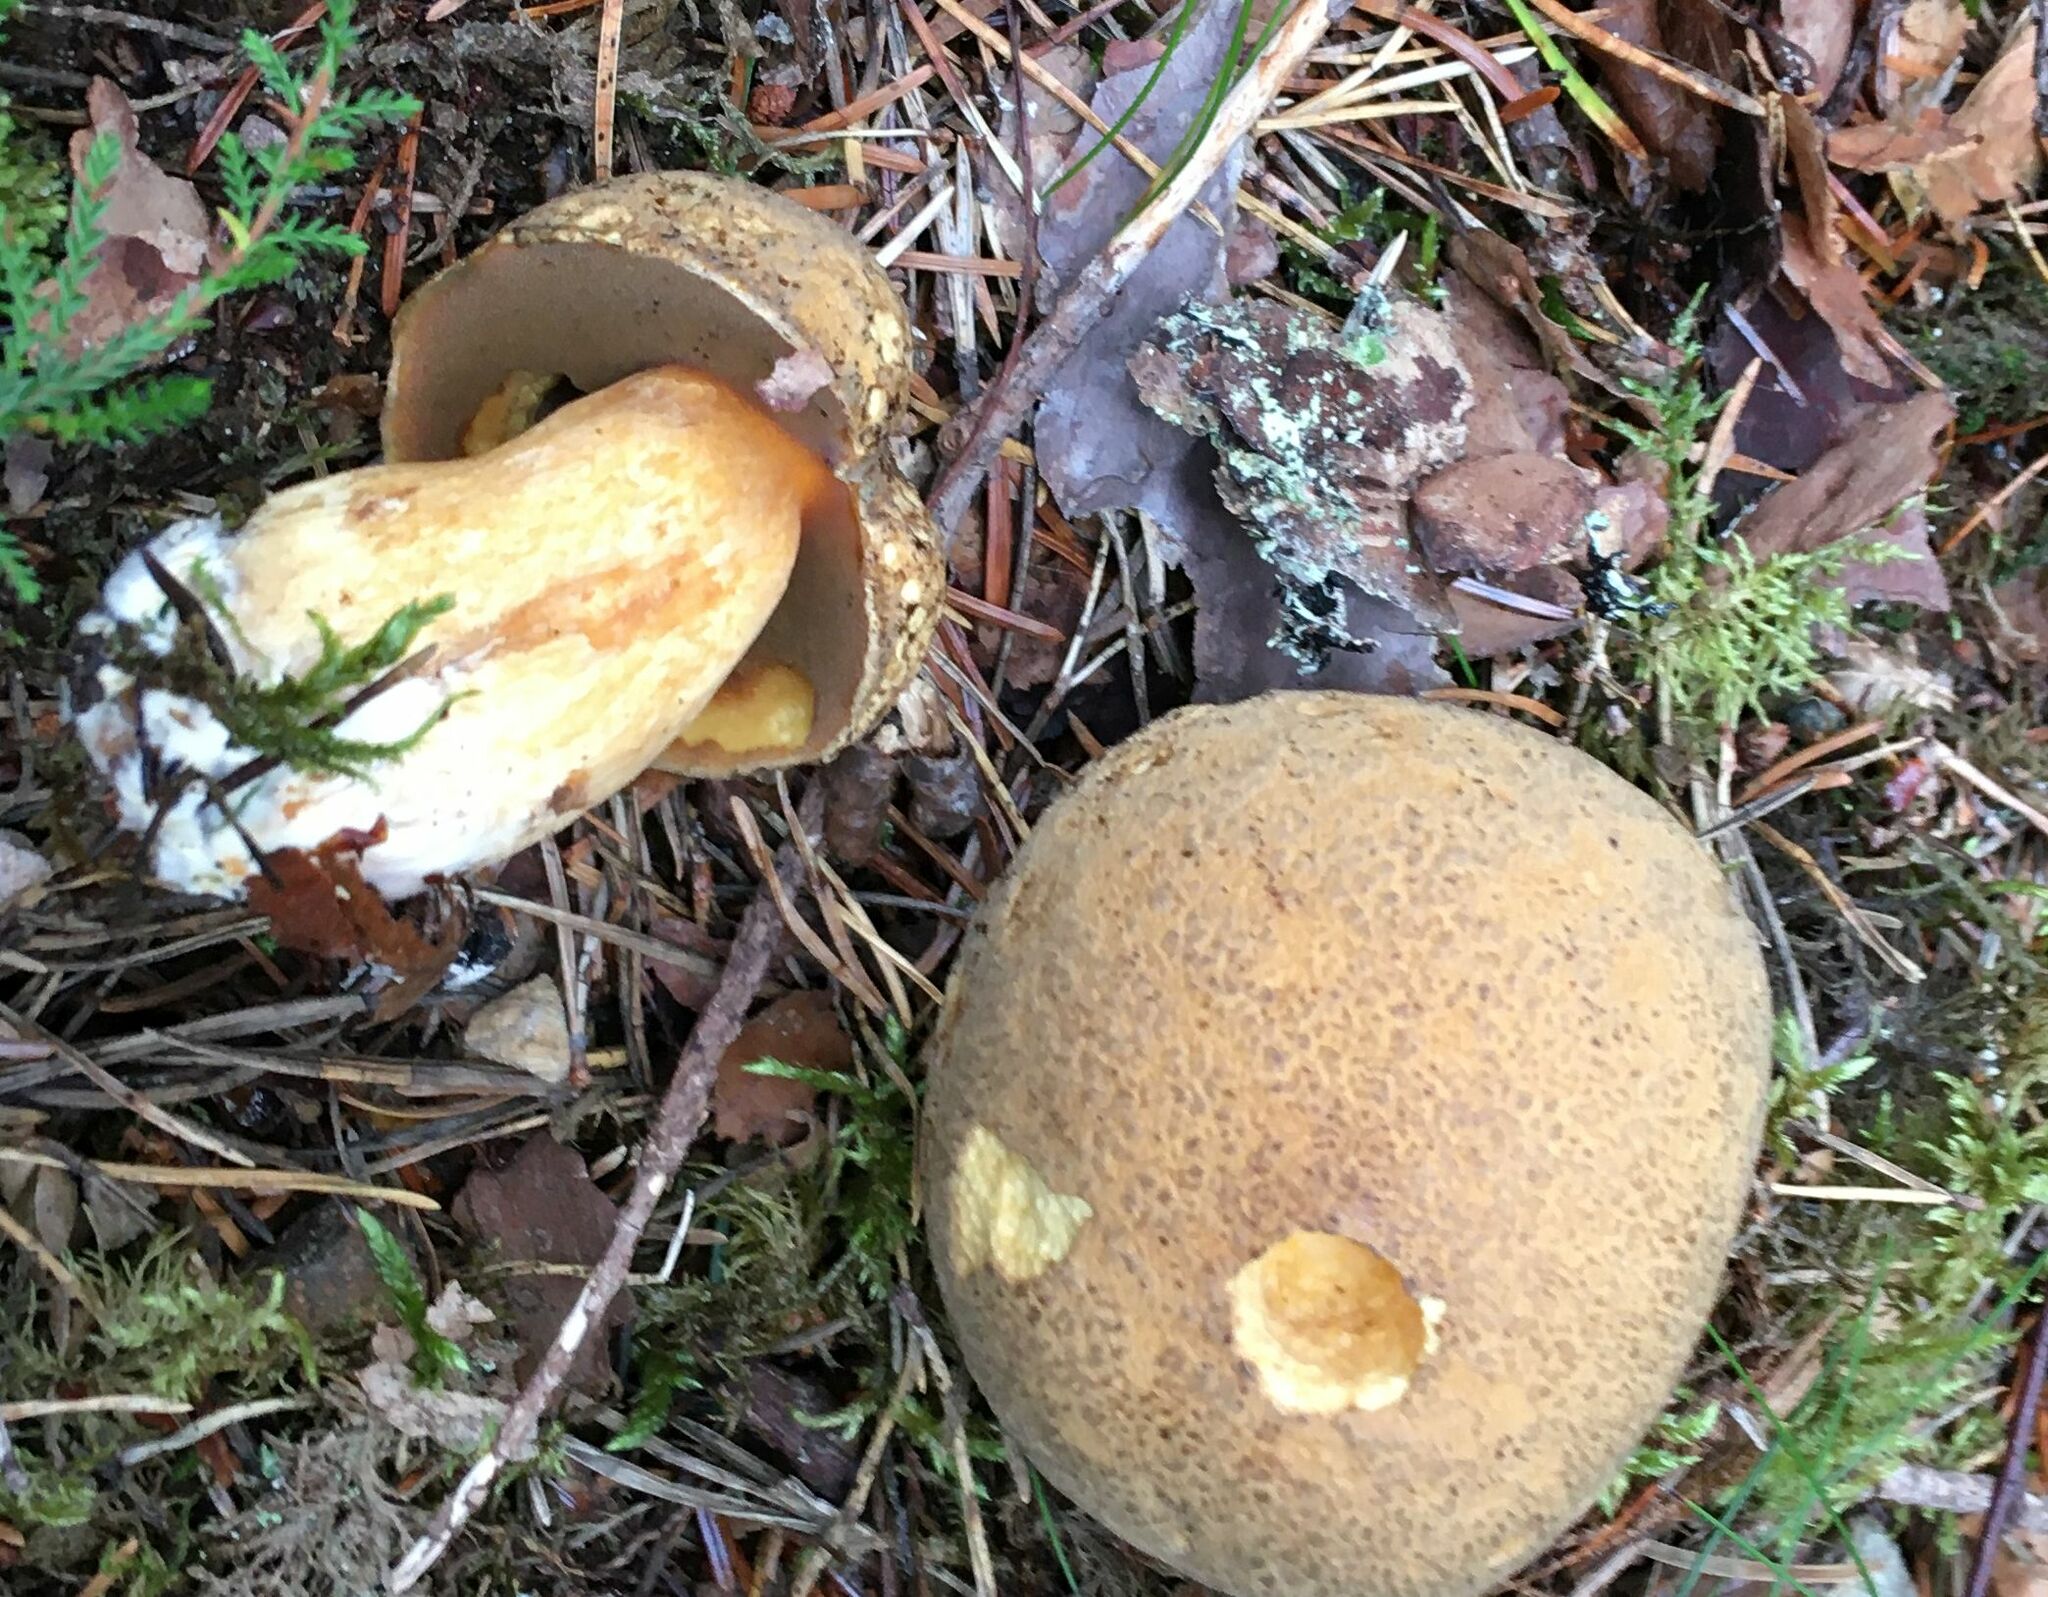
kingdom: Fungi
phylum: Basidiomycota
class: Agaricomycetes
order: Boletales
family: Suillaceae
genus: Suillus
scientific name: Suillus variegatus
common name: Velvet bolete
